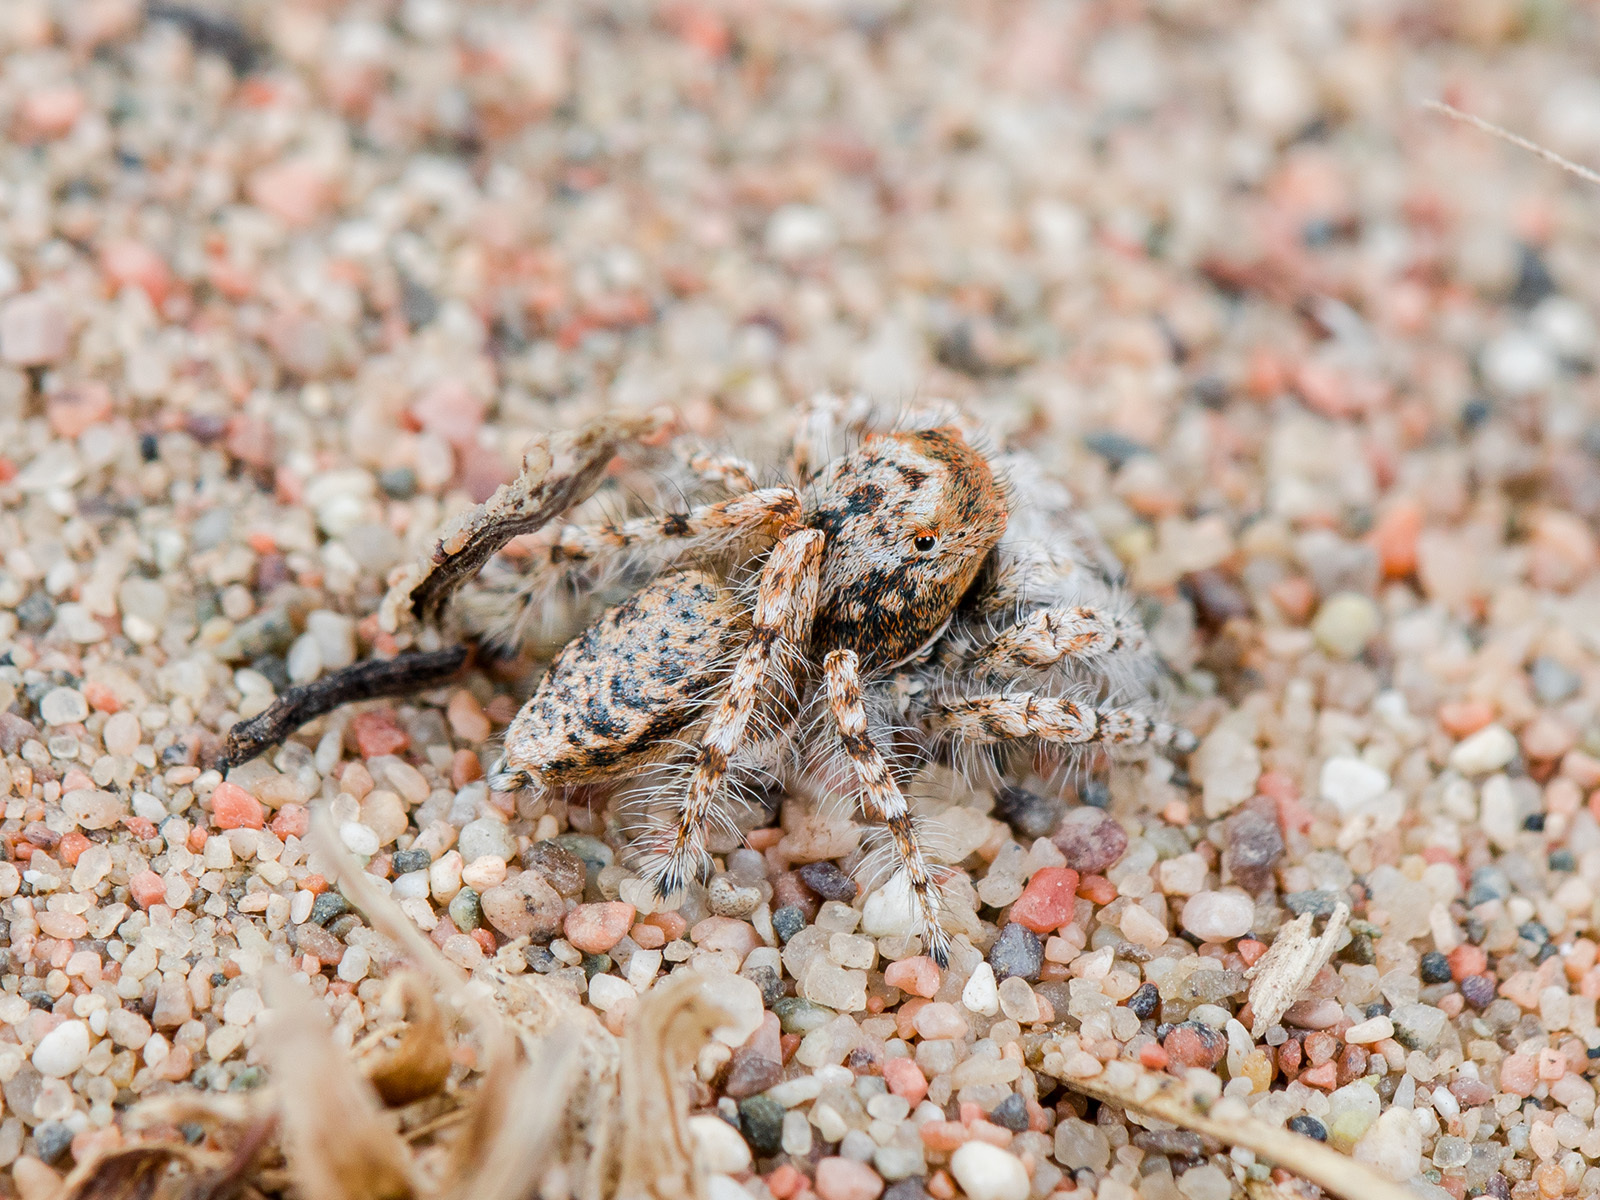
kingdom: Animalia
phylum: Arthropoda
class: Arachnida
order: Araneae
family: Salticidae
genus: Yllenus
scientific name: Yllenus uiguricus
